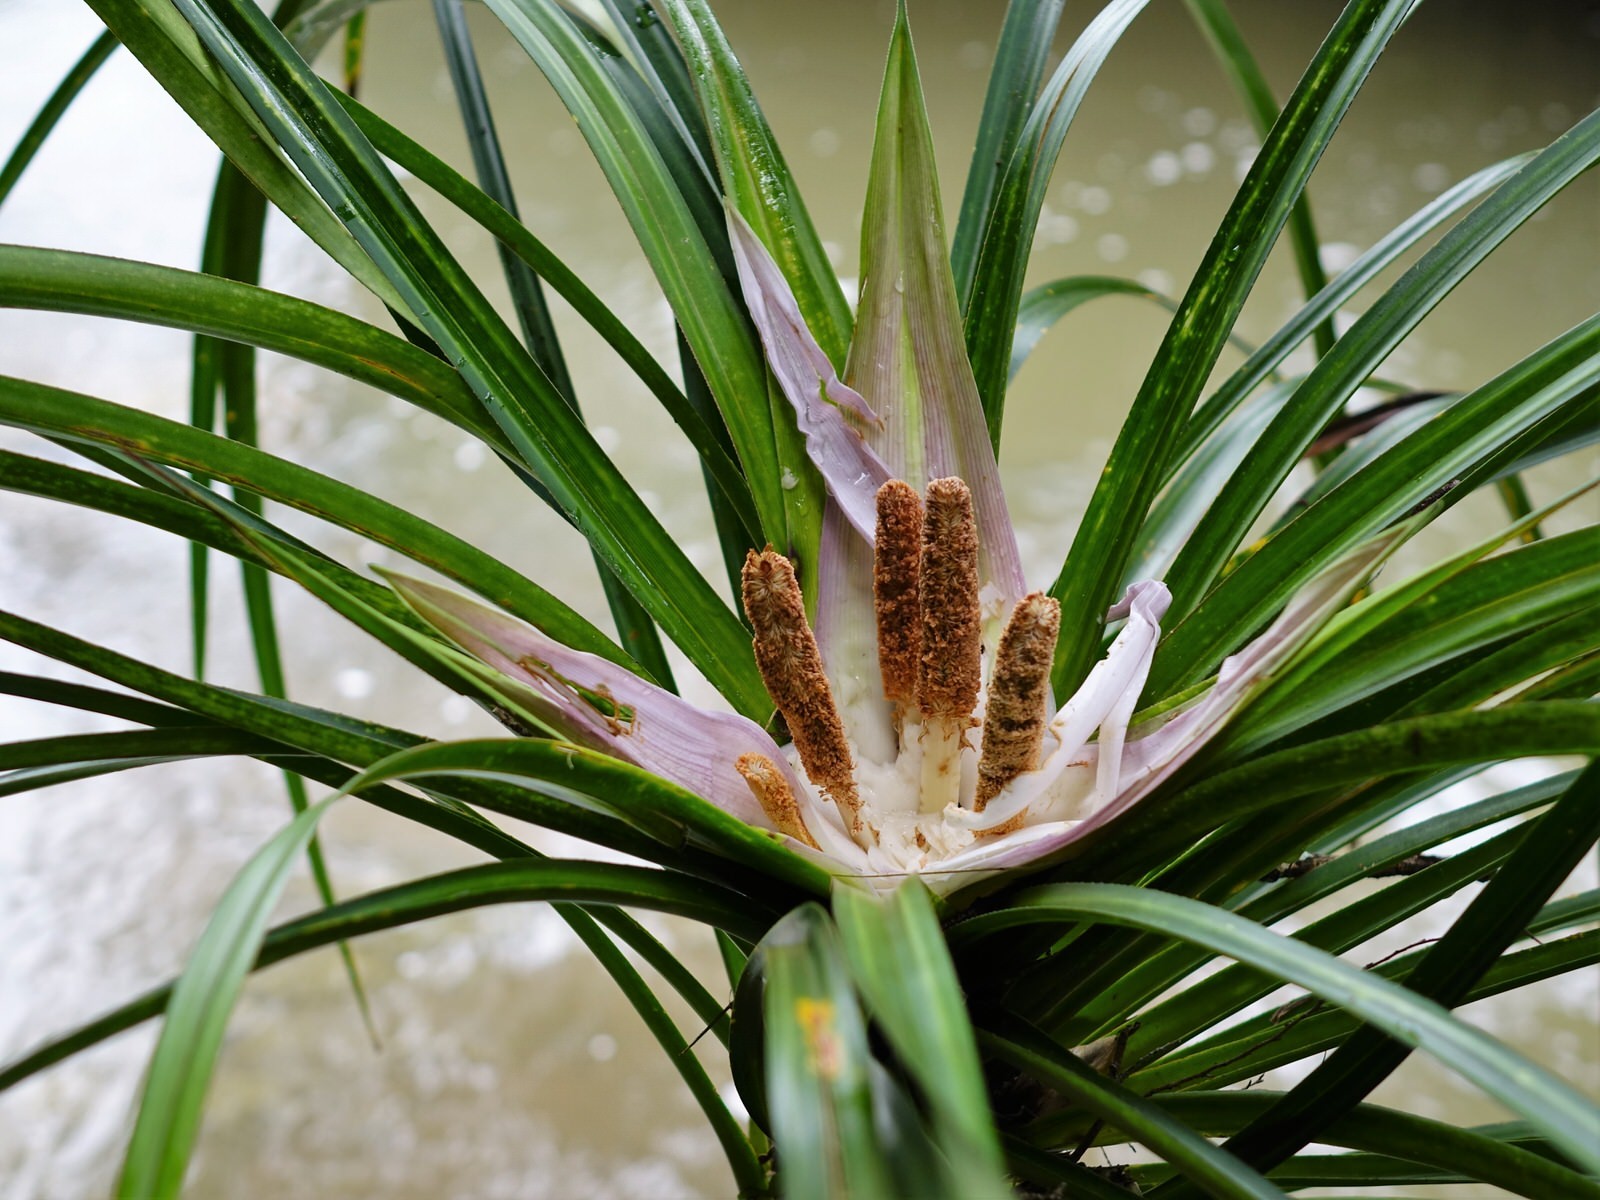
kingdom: Plantae
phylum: Tracheophyta
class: Liliopsida
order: Pandanales
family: Pandanaceae
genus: Freycinetia
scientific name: Freycinetia banksii
